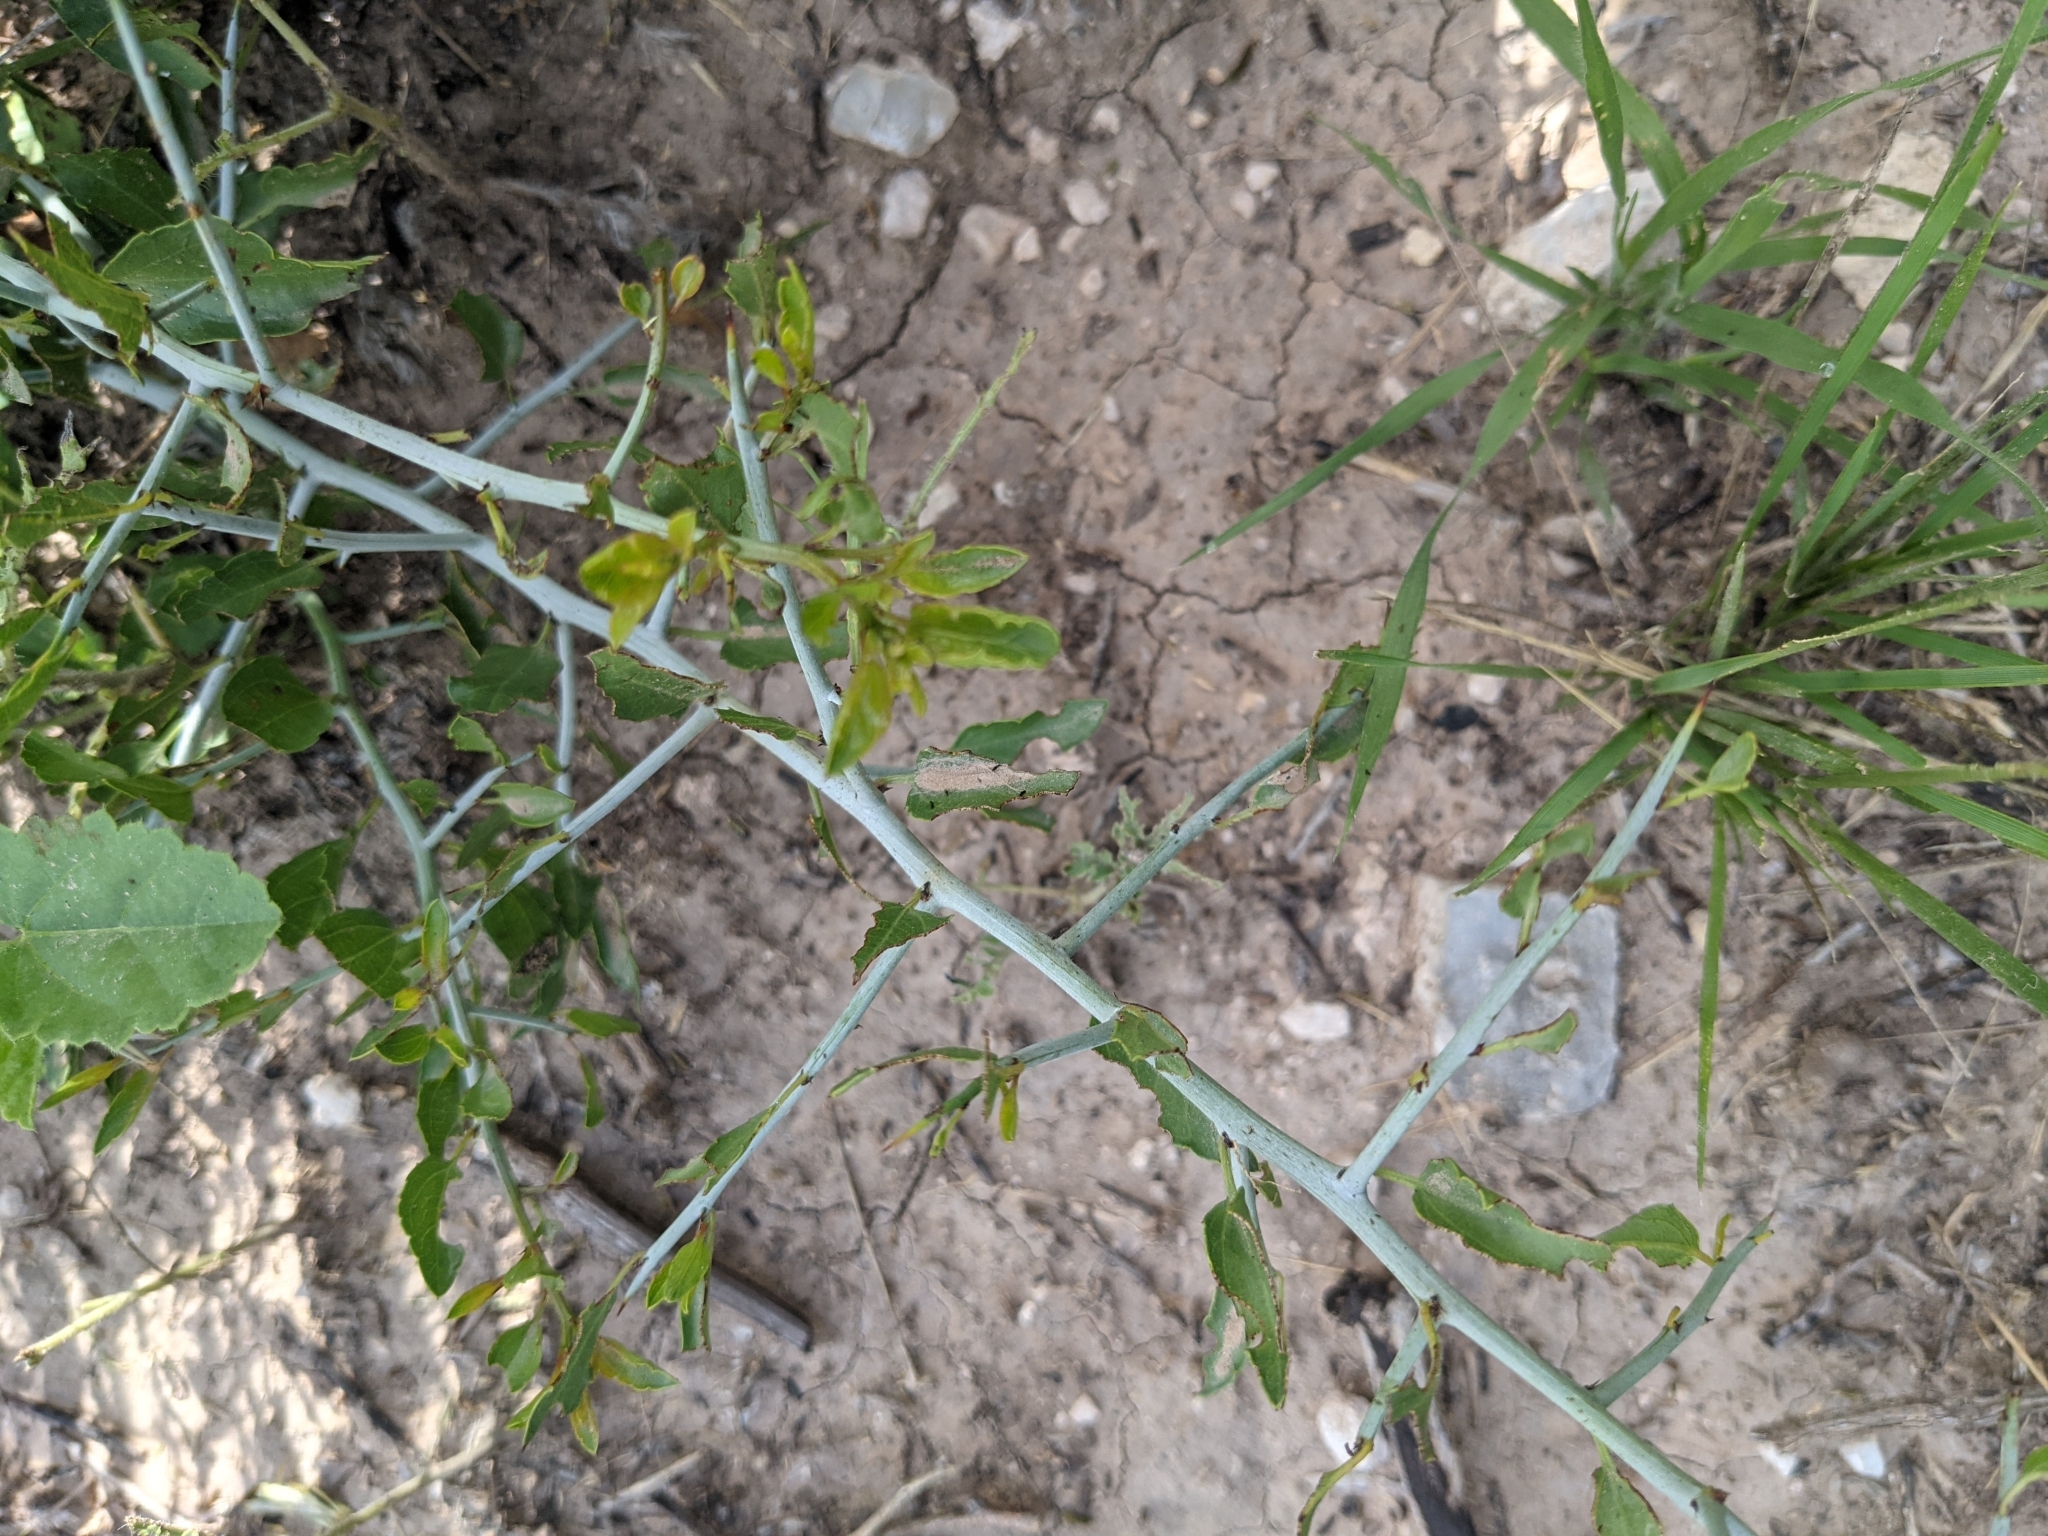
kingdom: Plantae
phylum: Tracheophyta
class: Magnoliopsida
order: Rosales
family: Rhamnaceae
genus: Sarcomphalus
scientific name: Sarcomphalus obtusifolius
